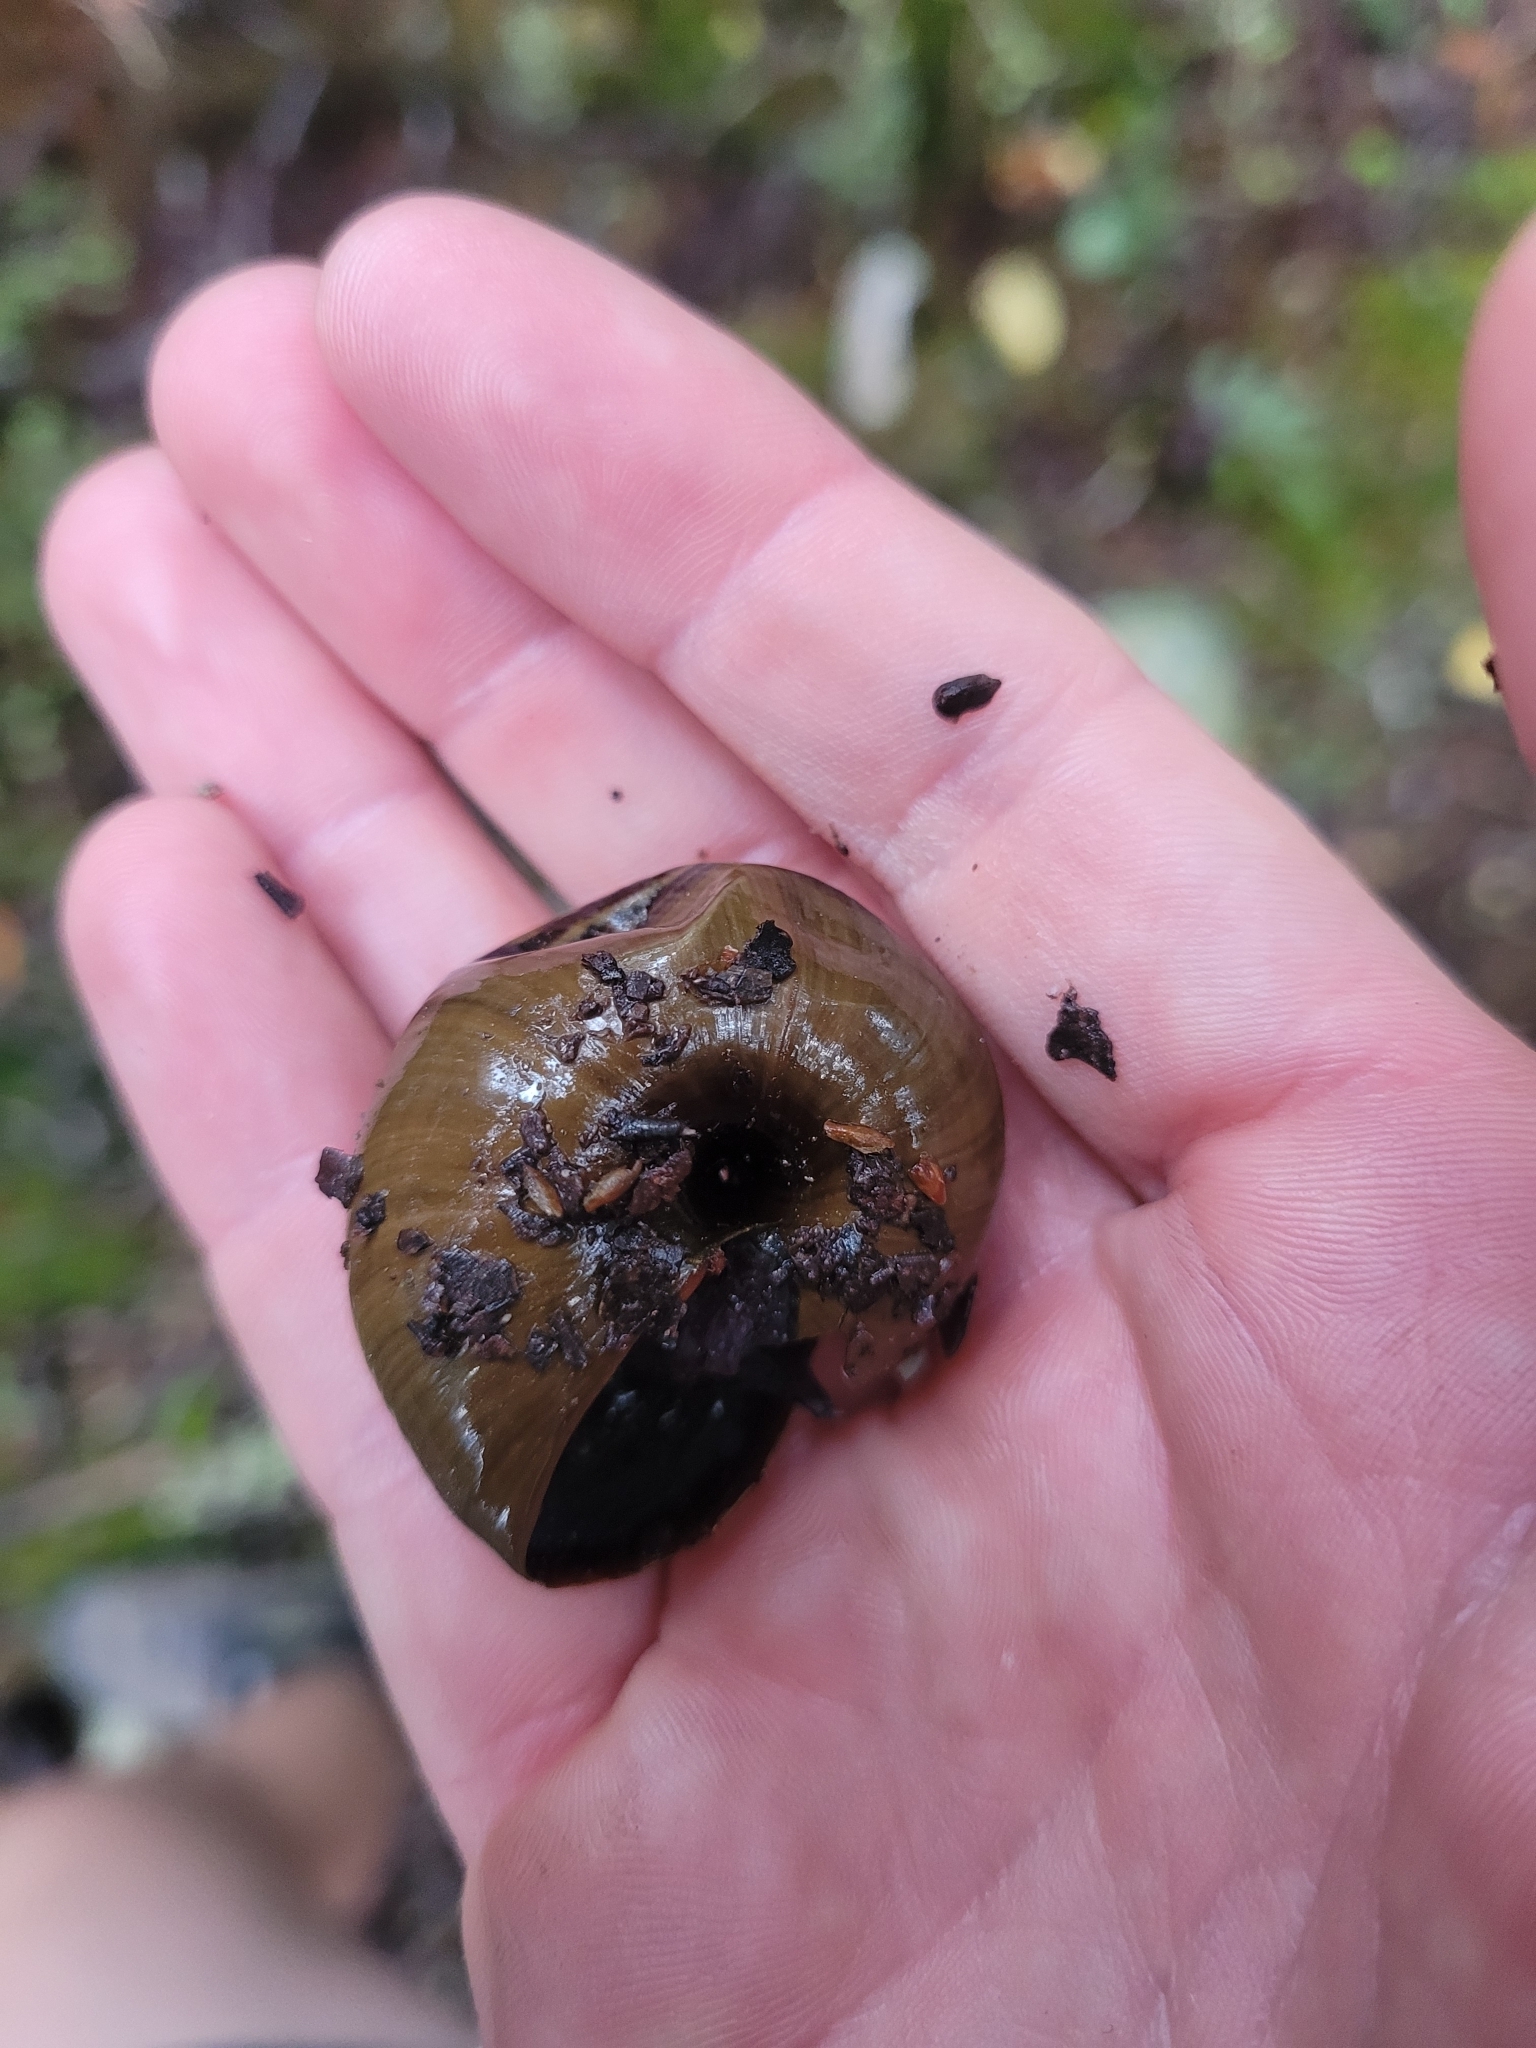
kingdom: Animalia
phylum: Mollusca
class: Gastropoda
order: Stylommatophora
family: Rhytididae
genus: Powelliphanta
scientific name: Powelliphanta hochstetteri
